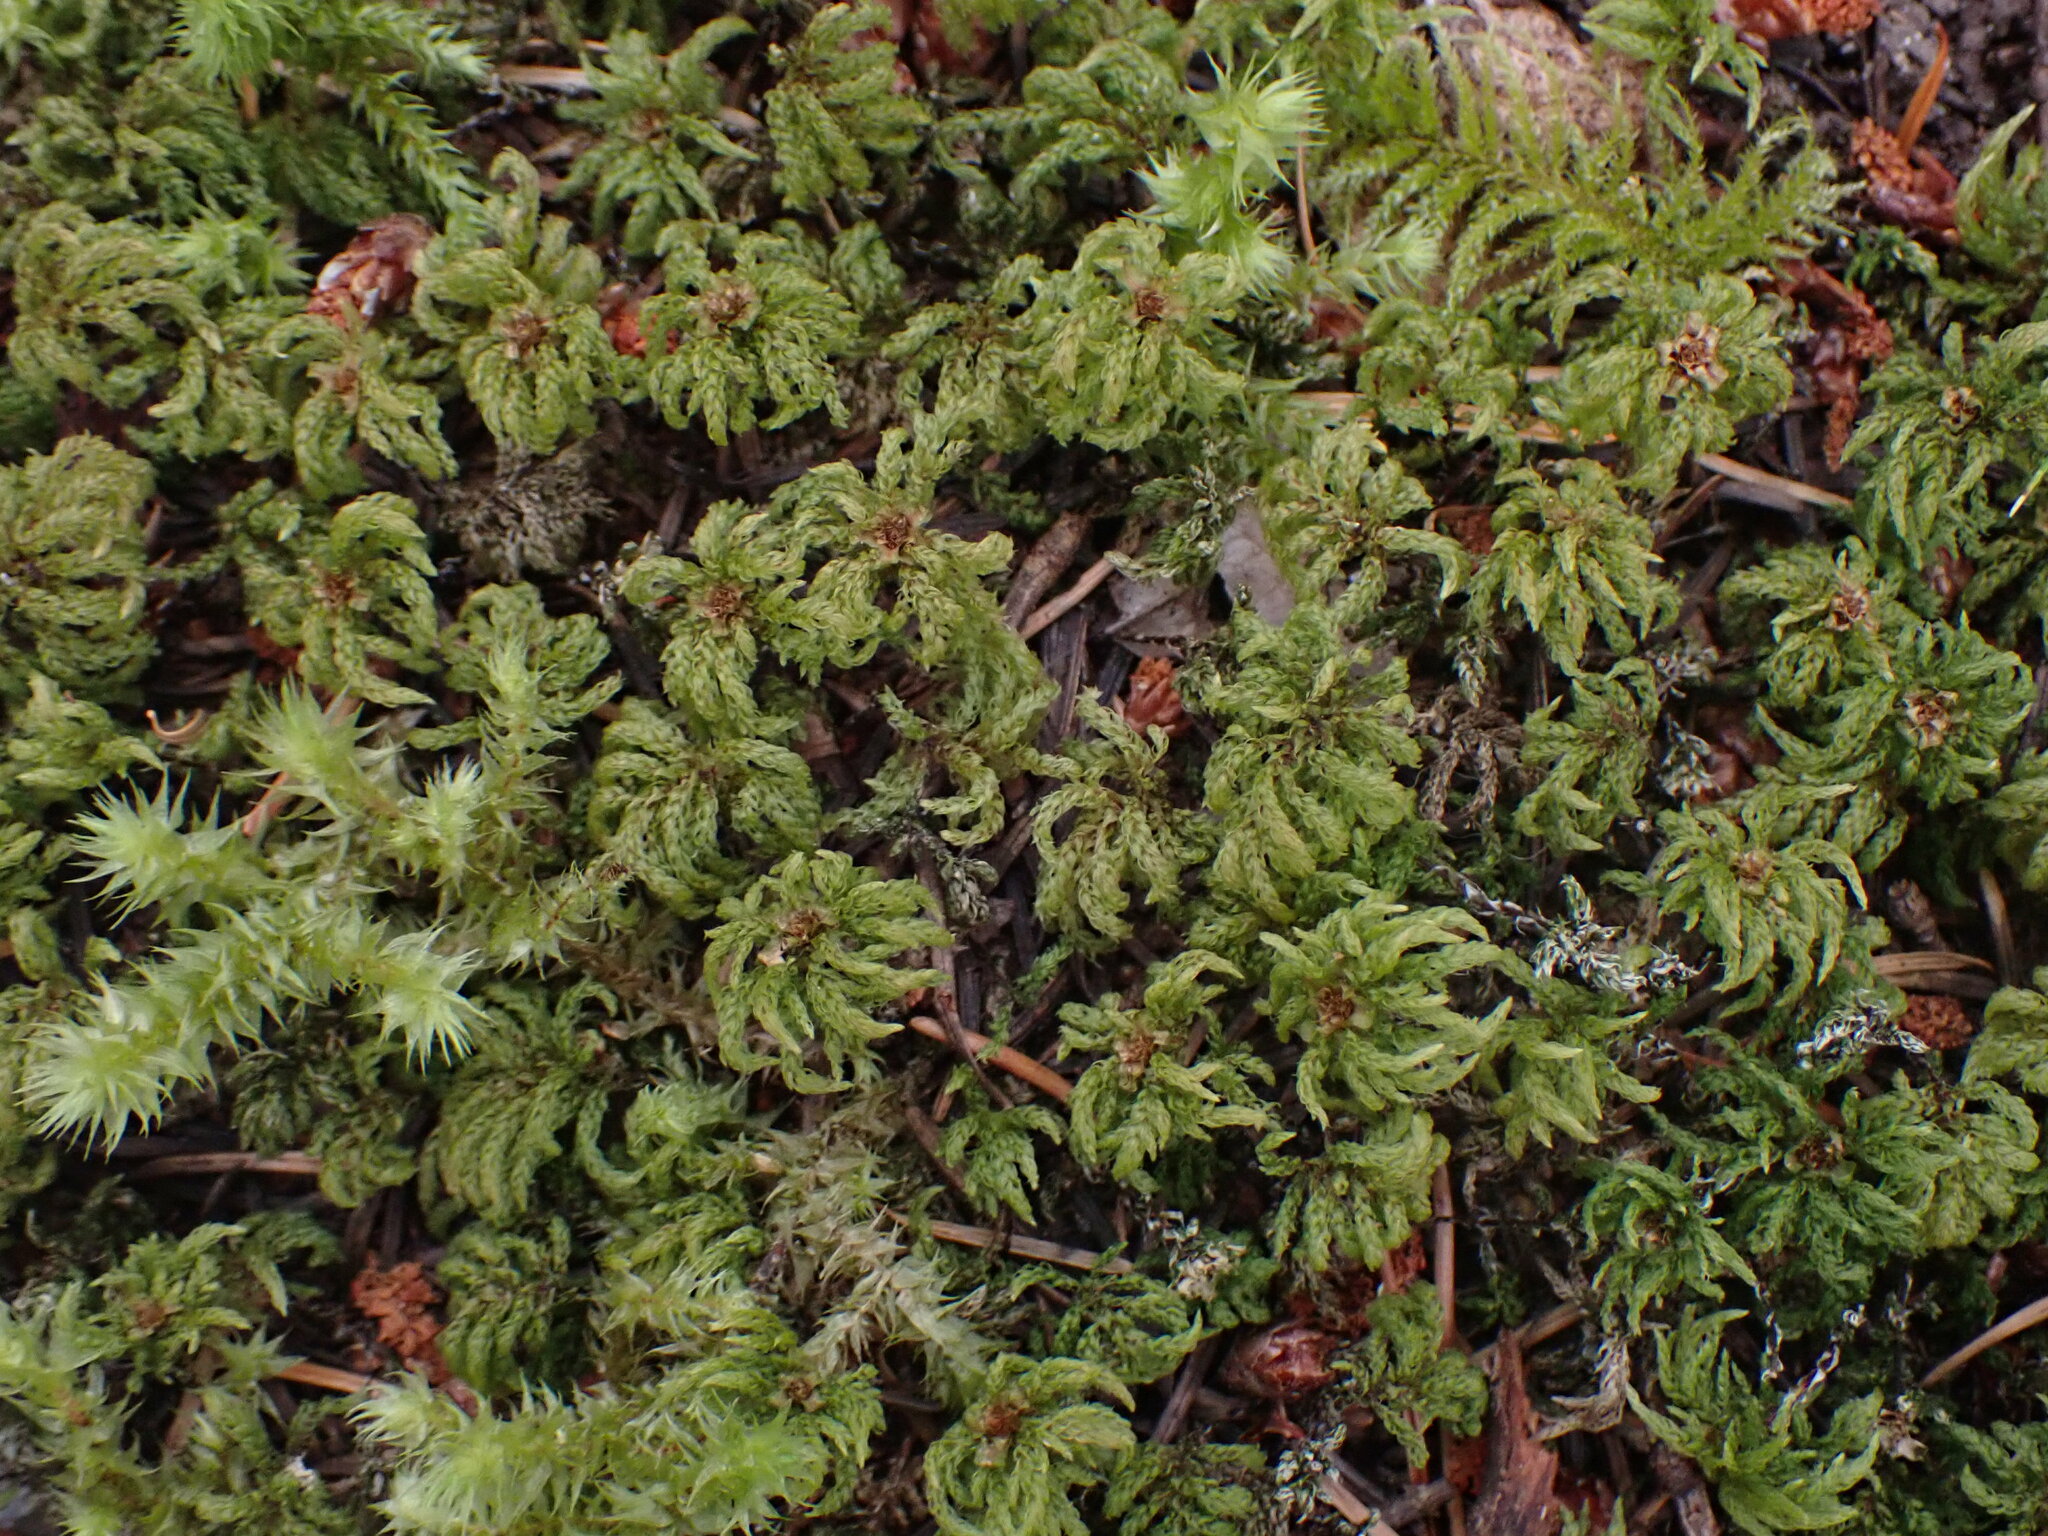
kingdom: Plantae
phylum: Bryophyta
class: Bryopsida
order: Bryales
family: Mniaceae
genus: Leucolepis
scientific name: Leucolepis acanthoneura
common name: Leucolepis umbrella moss
